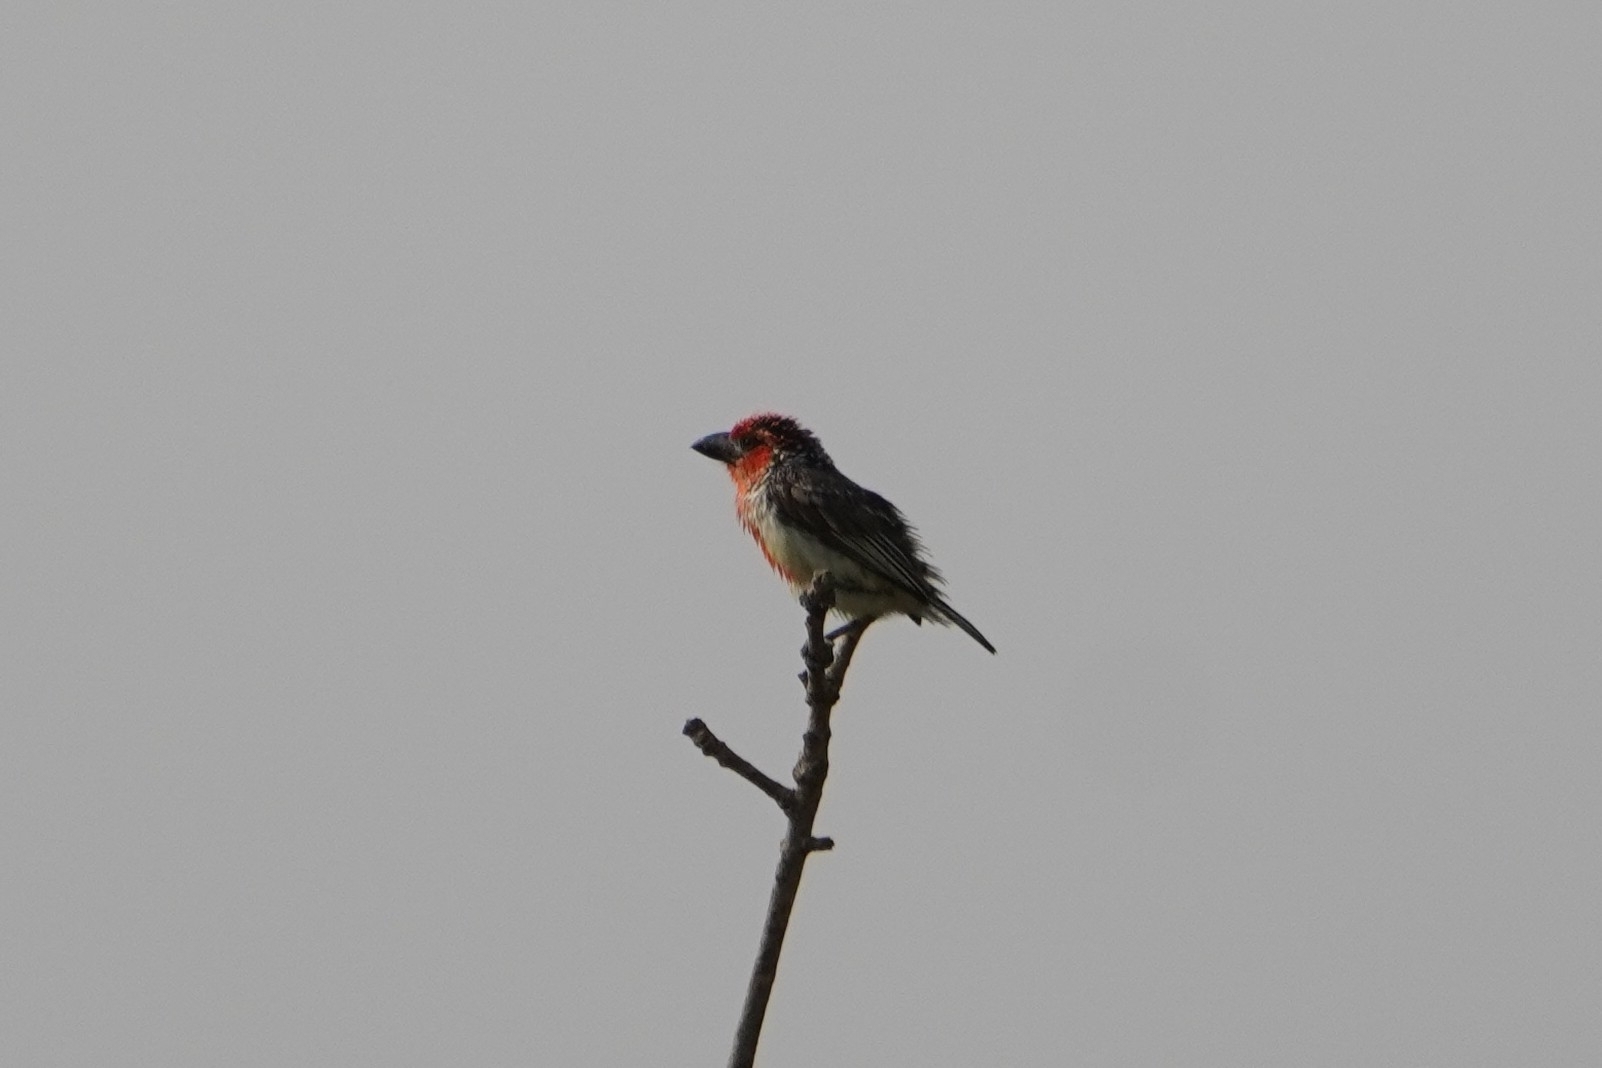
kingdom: Animalia
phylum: Chordata
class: Aves
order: Piciformes
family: Lybiidae
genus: Lybius
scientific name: Lybius vieilloti
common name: Vieillot's barbet
